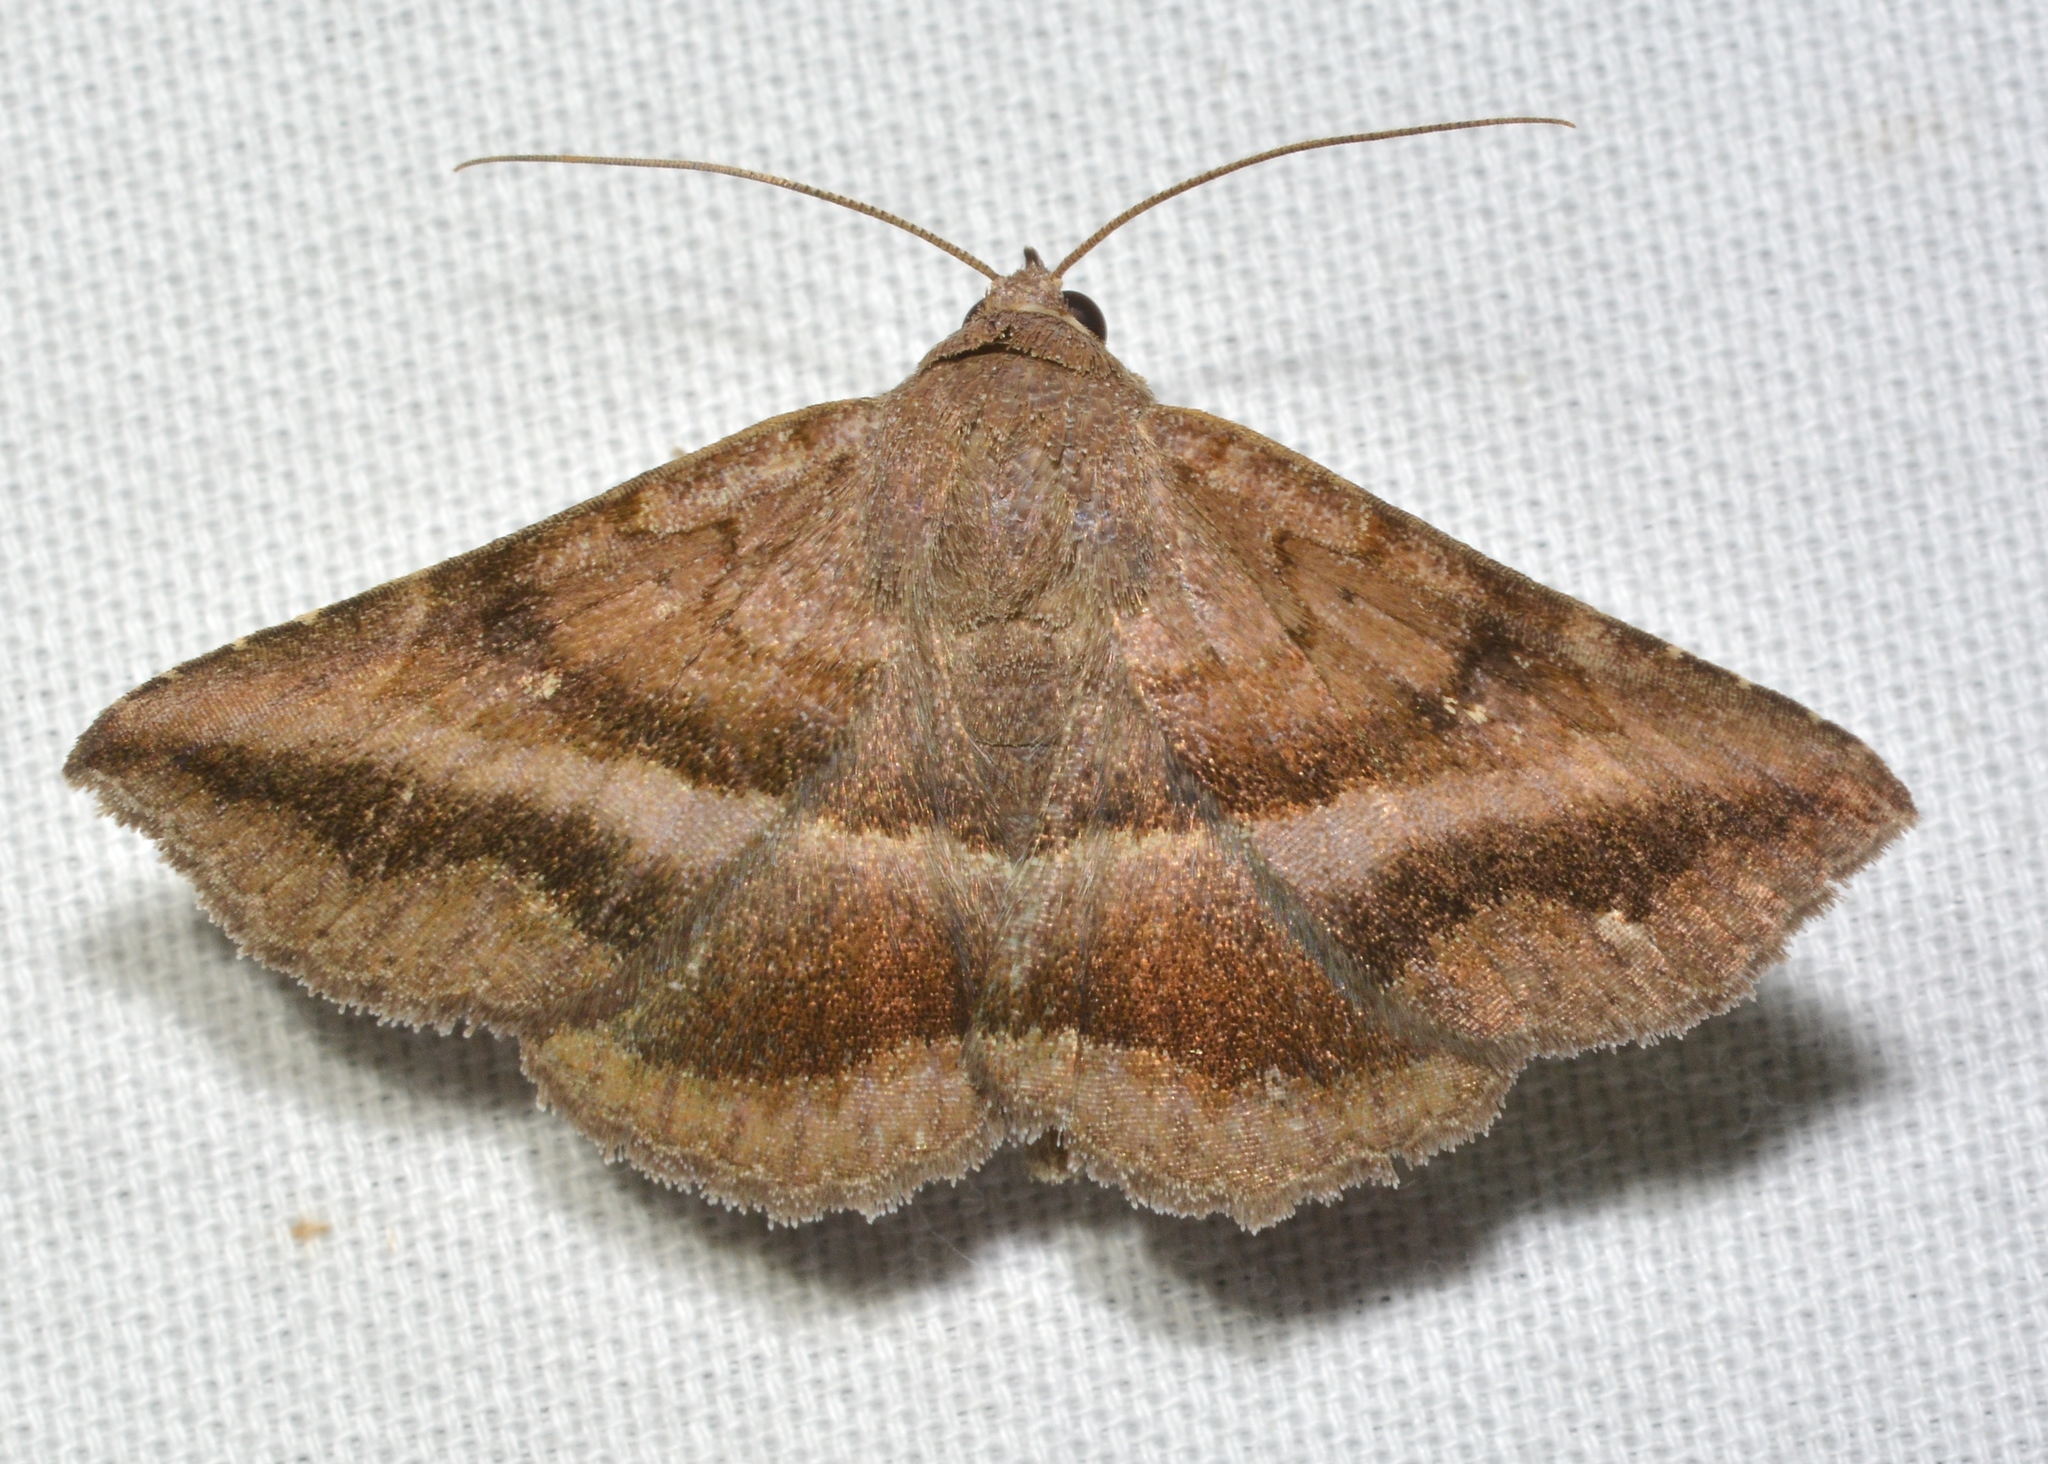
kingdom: Animalia
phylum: Arthropoda
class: Insecta
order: Lepidoptera
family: Erebidae
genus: Lesmone
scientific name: Lesmone detrahens
